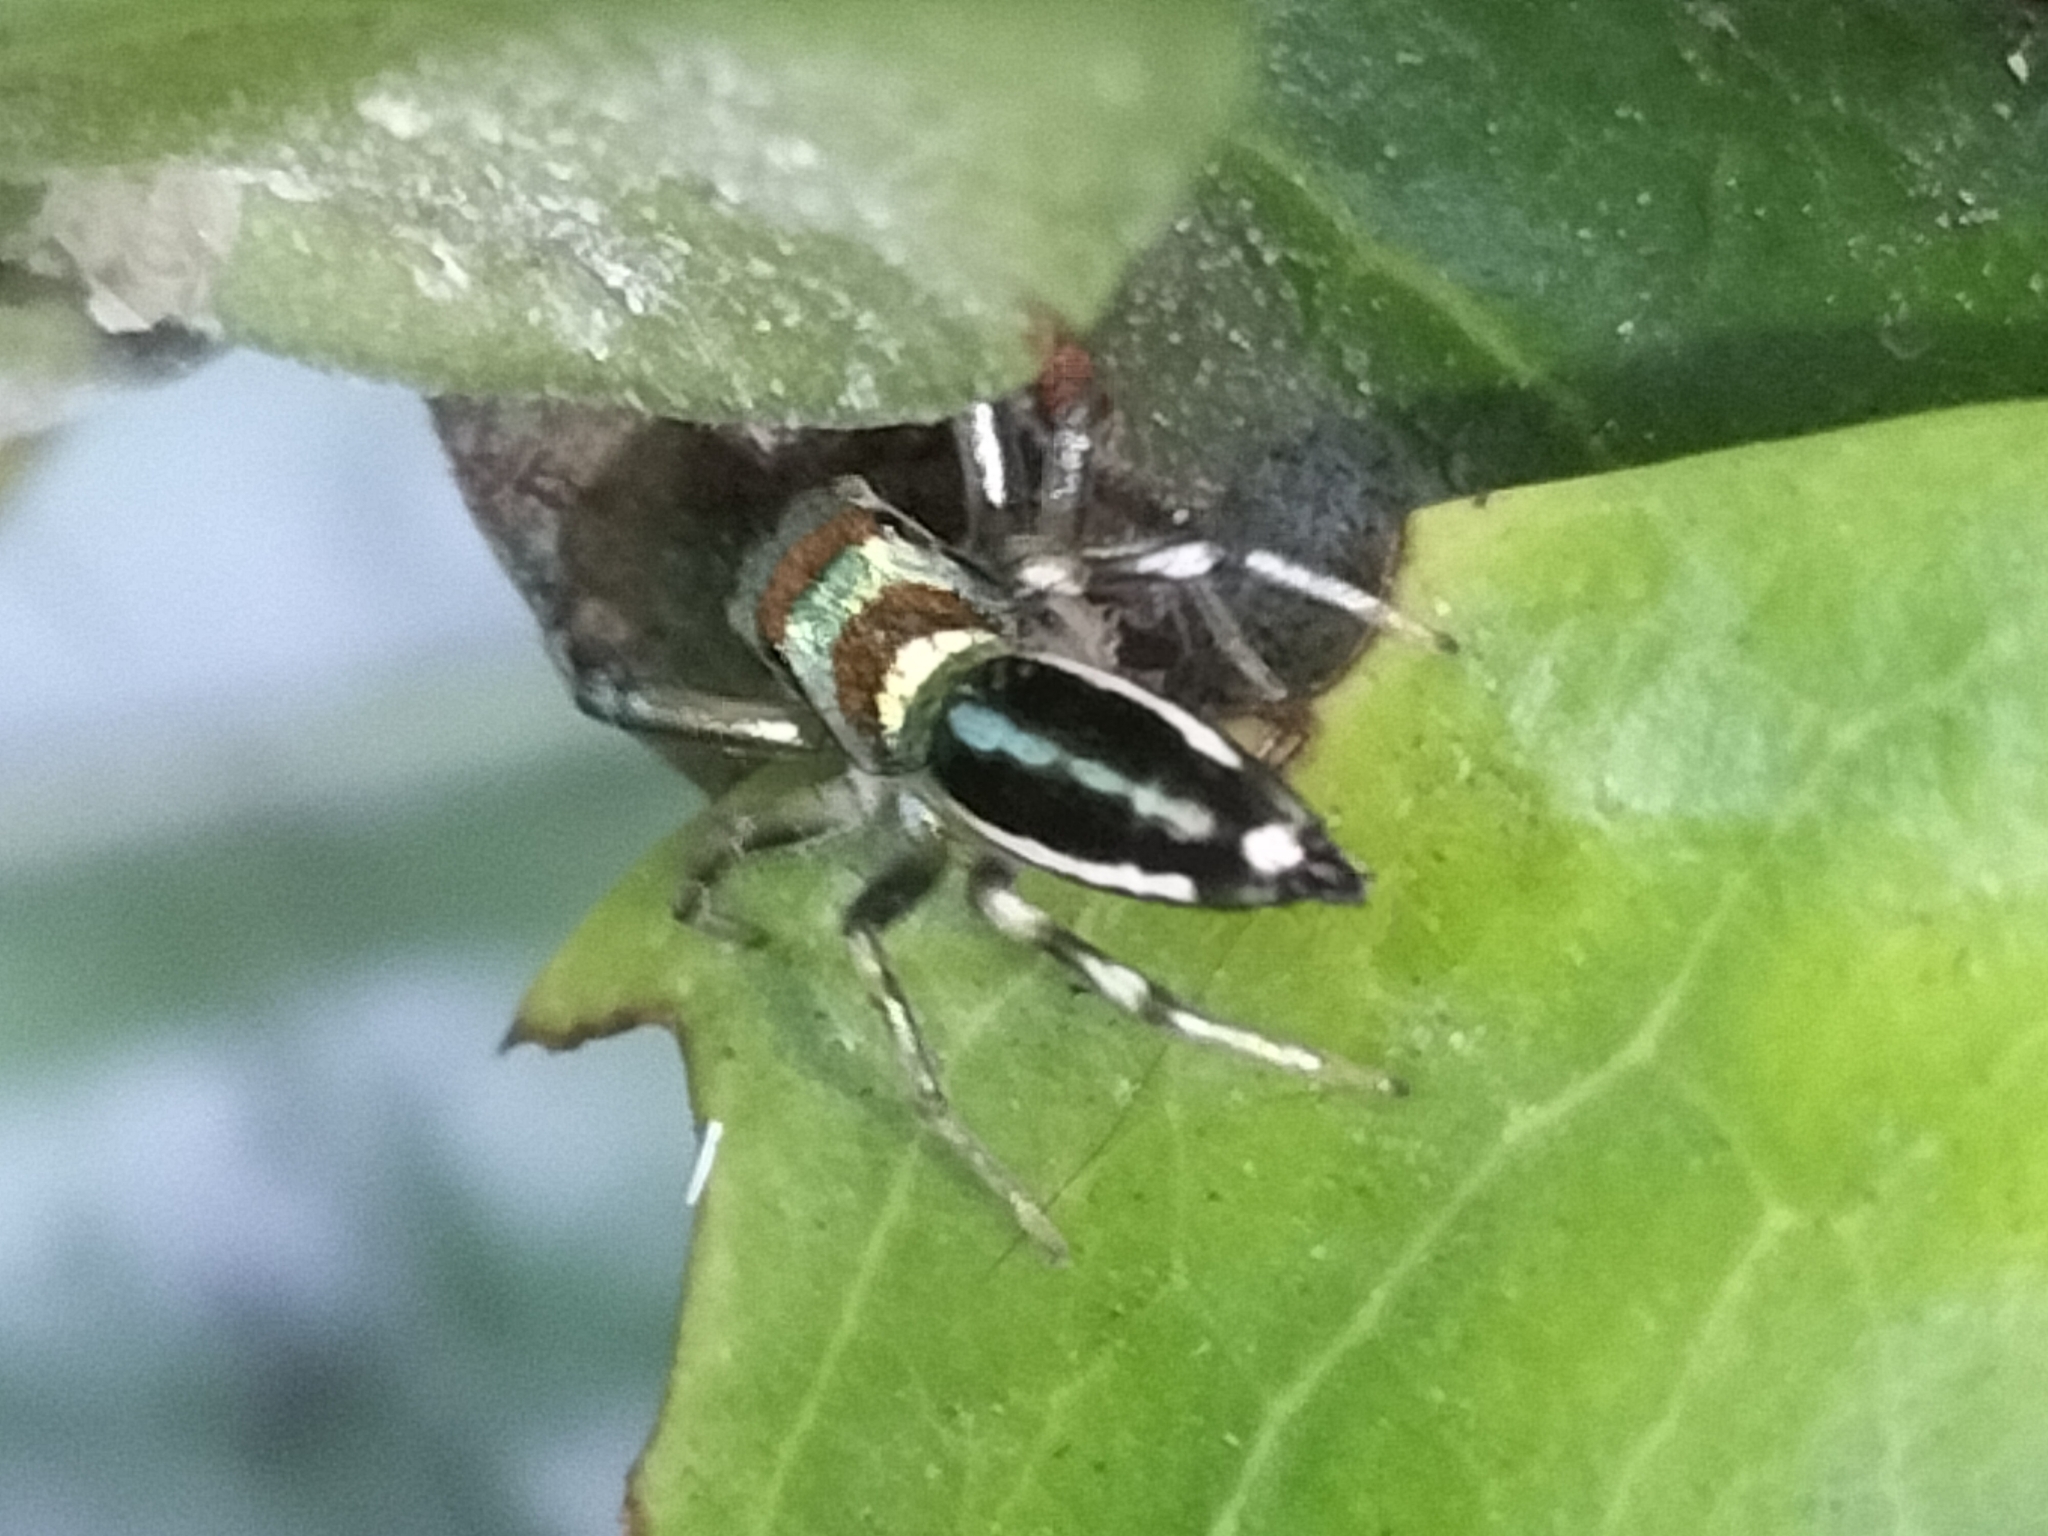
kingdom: Animalia
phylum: Arthropoda
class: Arachnida
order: Araneae
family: Salticidae
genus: Cosmophasis
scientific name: Cosmophasis micarioides
